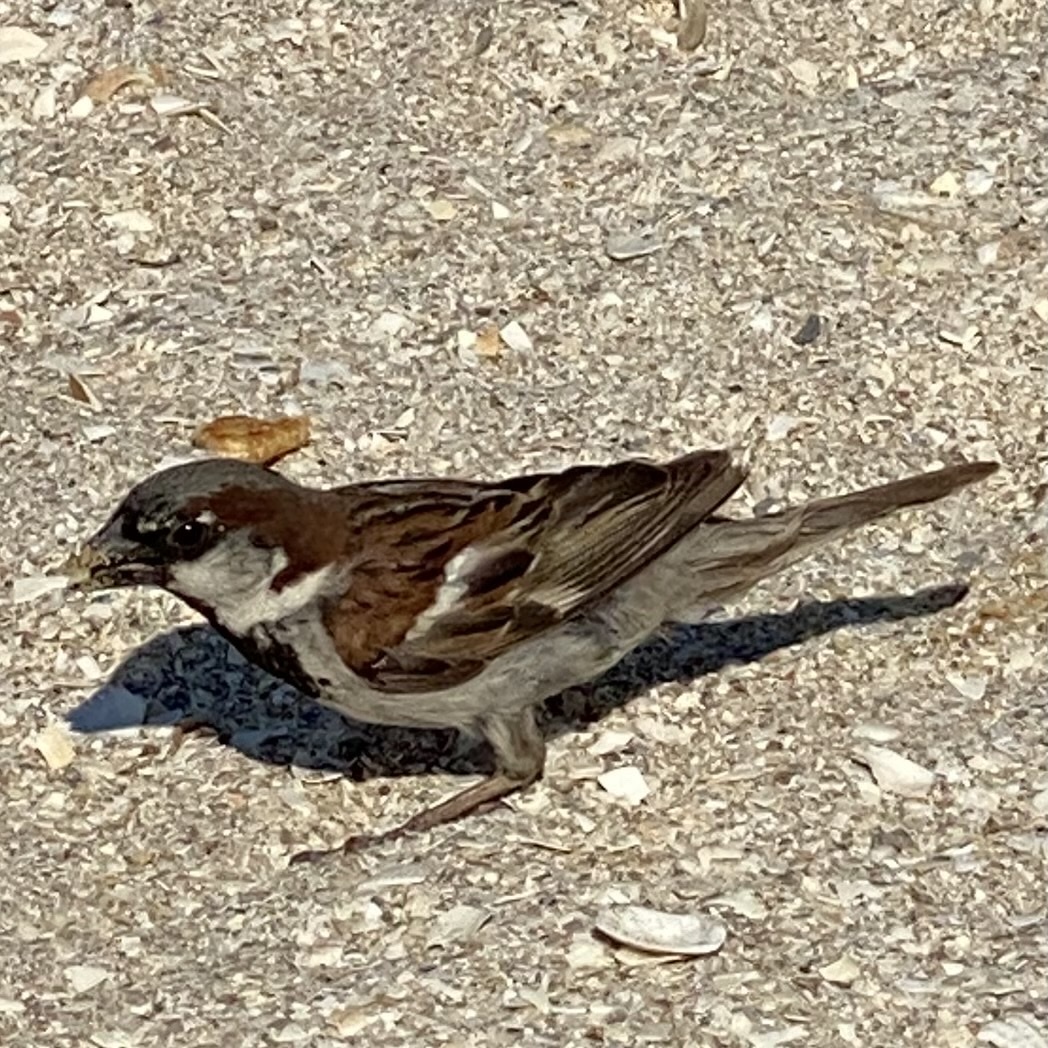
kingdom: Animalia
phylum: Chordata
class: Aves
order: Passeriformes
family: Passeridae
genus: Passer
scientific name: Passer domesticus
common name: House sparrow
